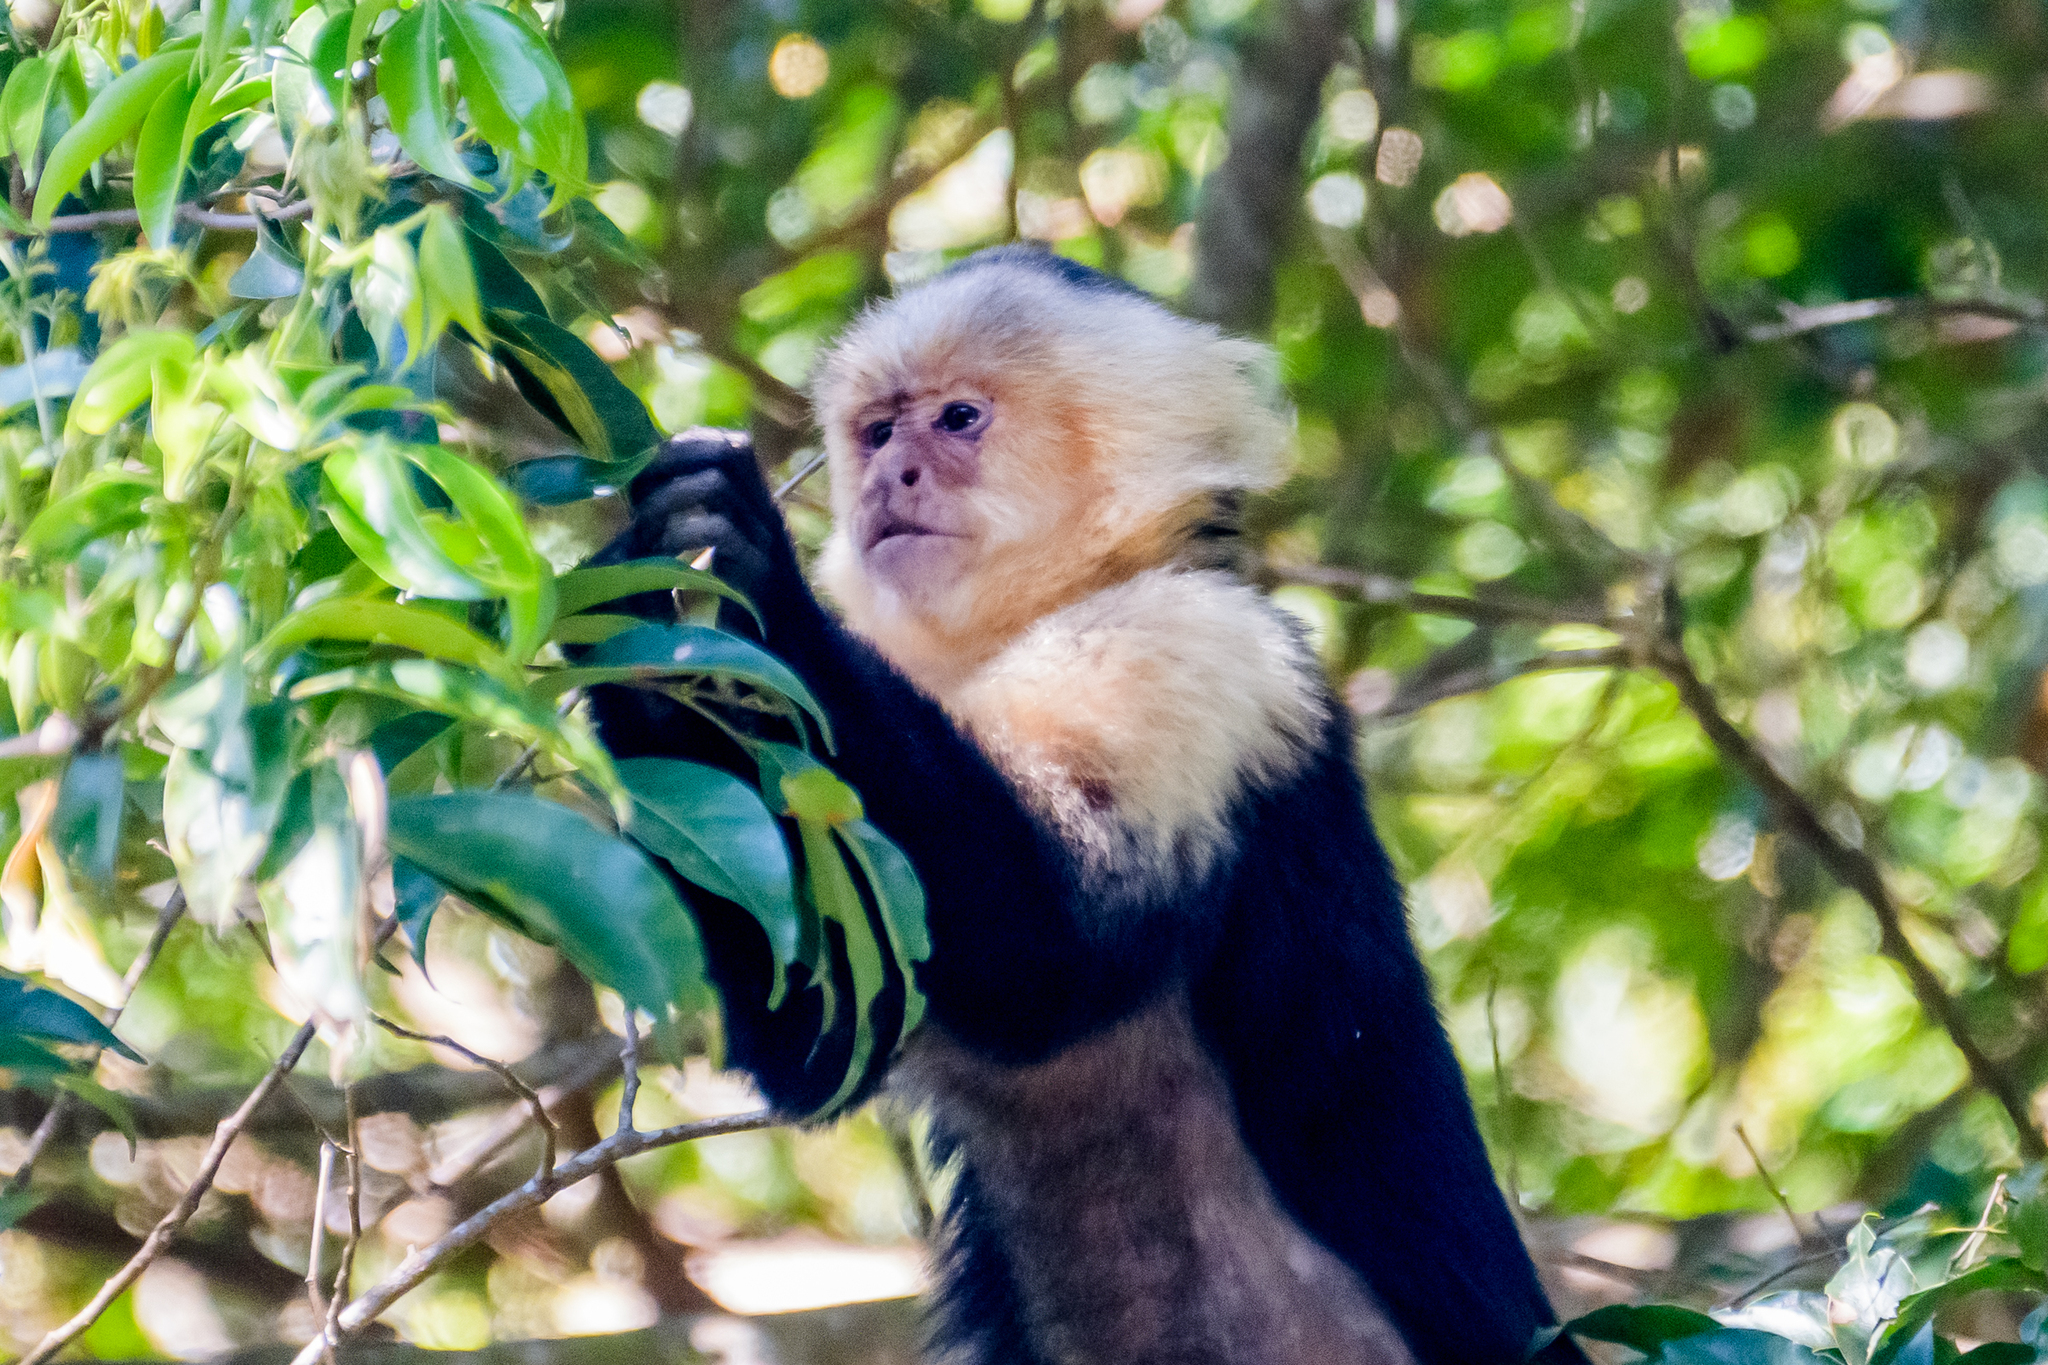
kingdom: Animalia
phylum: Chordata
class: Mammalia
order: Primates
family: Cebidae
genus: Cebus
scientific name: Cebus imitator
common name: Panamanian white-faced capuchin
